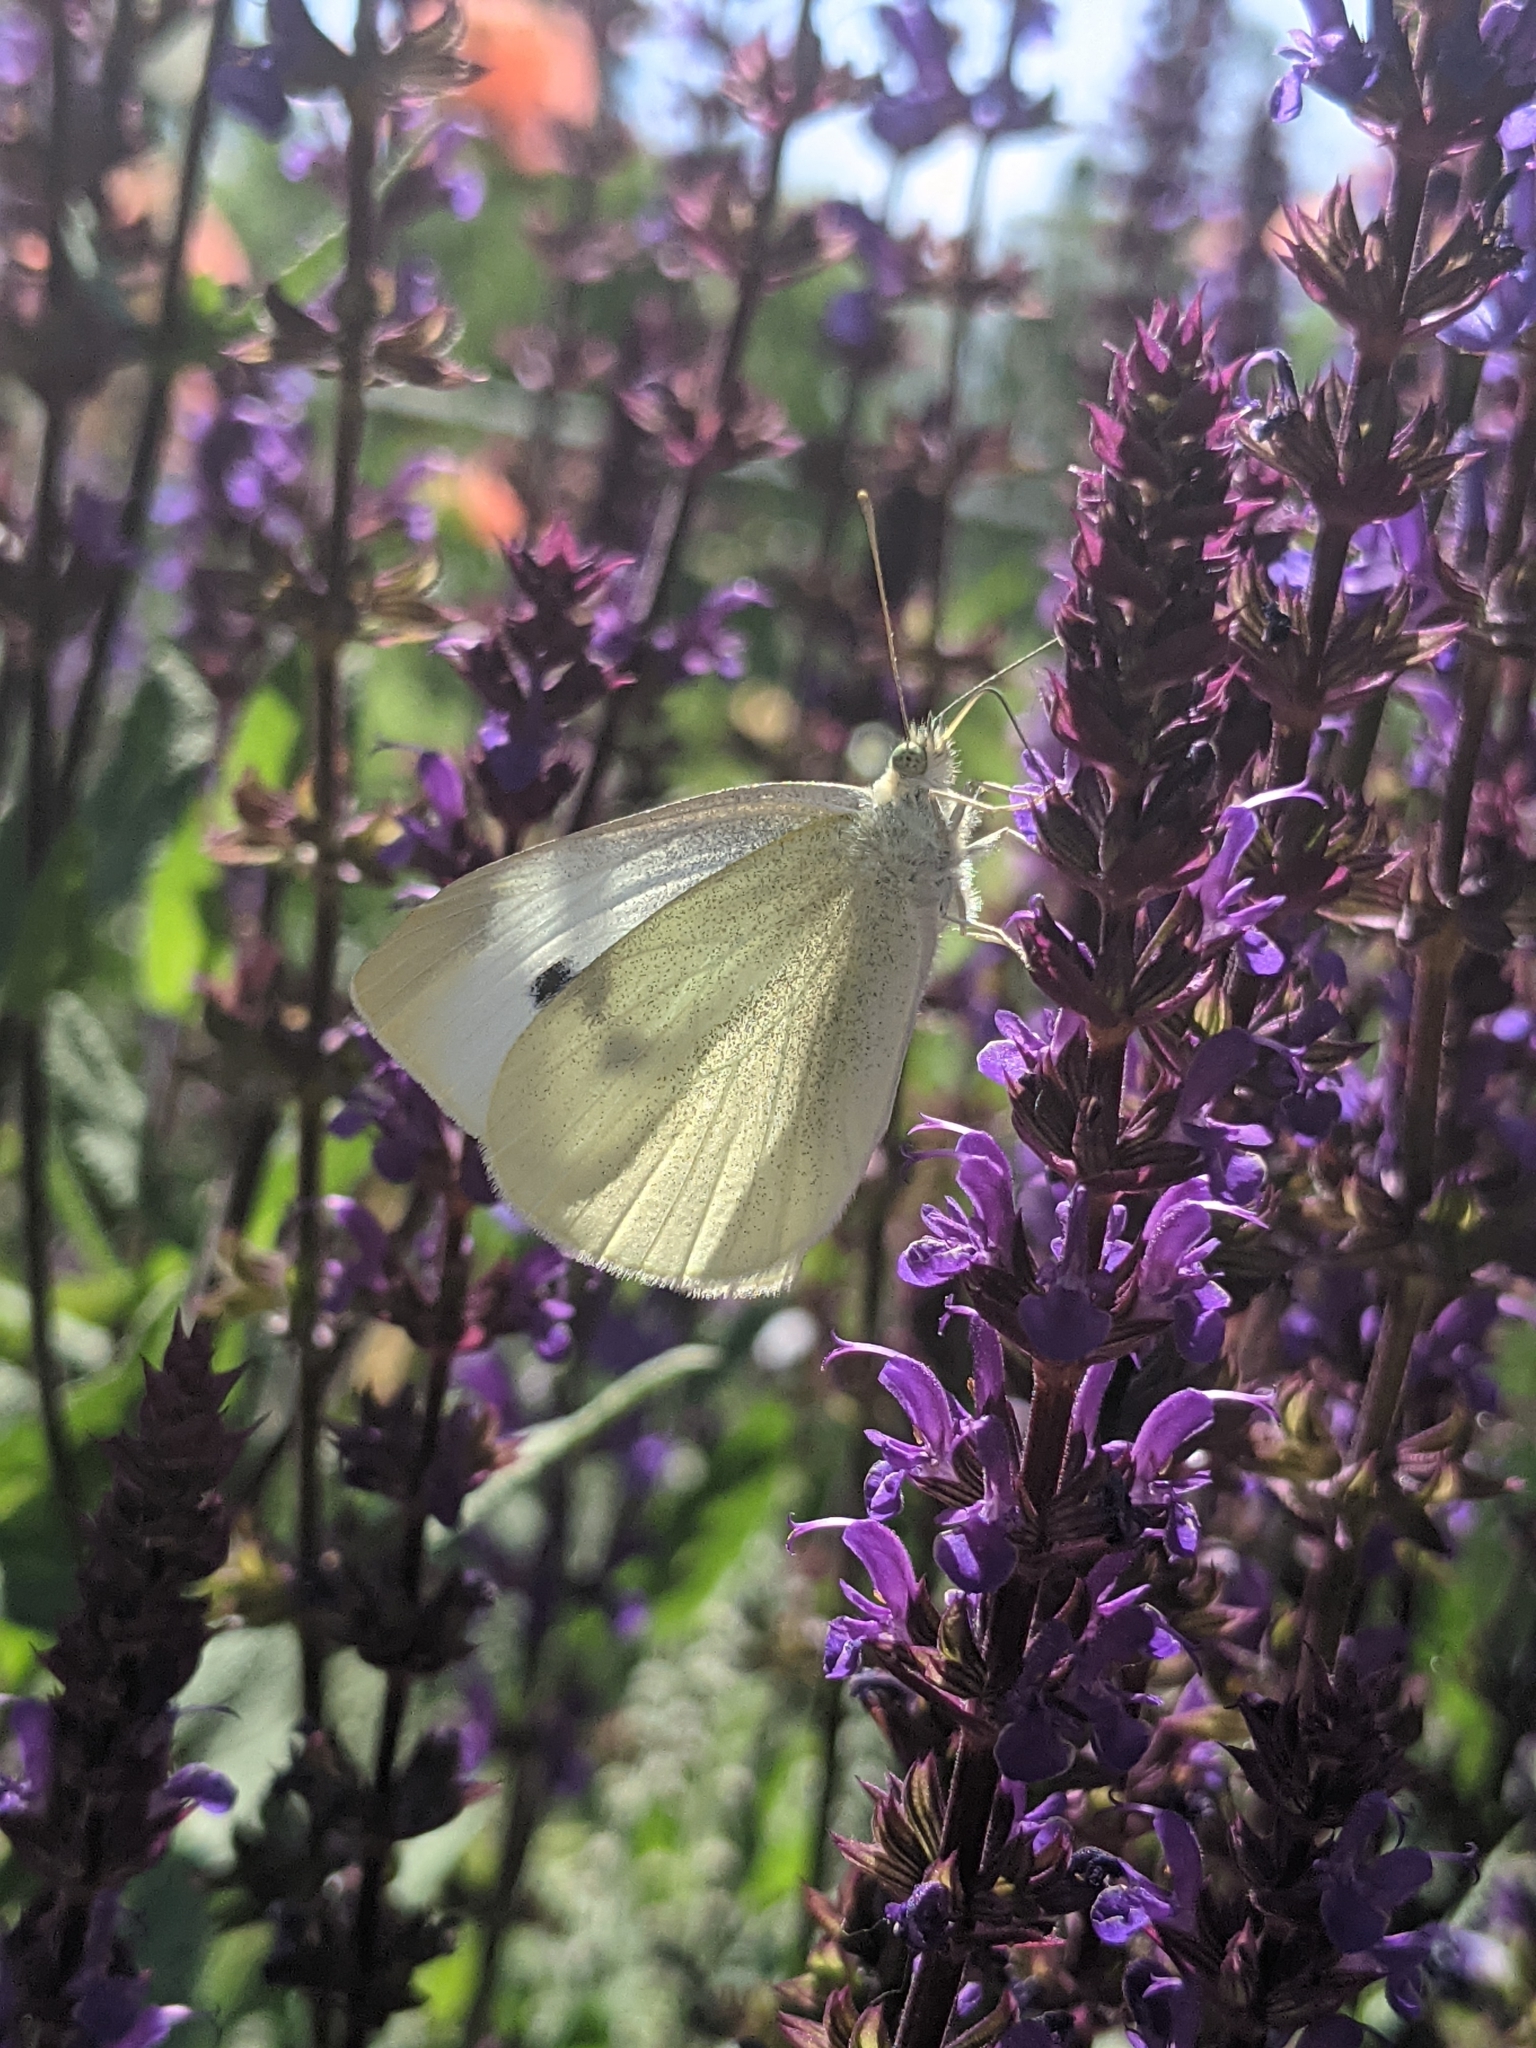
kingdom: Animalia
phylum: Arthropoda
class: Insecta
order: Lepidoptera
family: Pieridae
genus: Pieris
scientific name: Pieris rapae
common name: Small white
